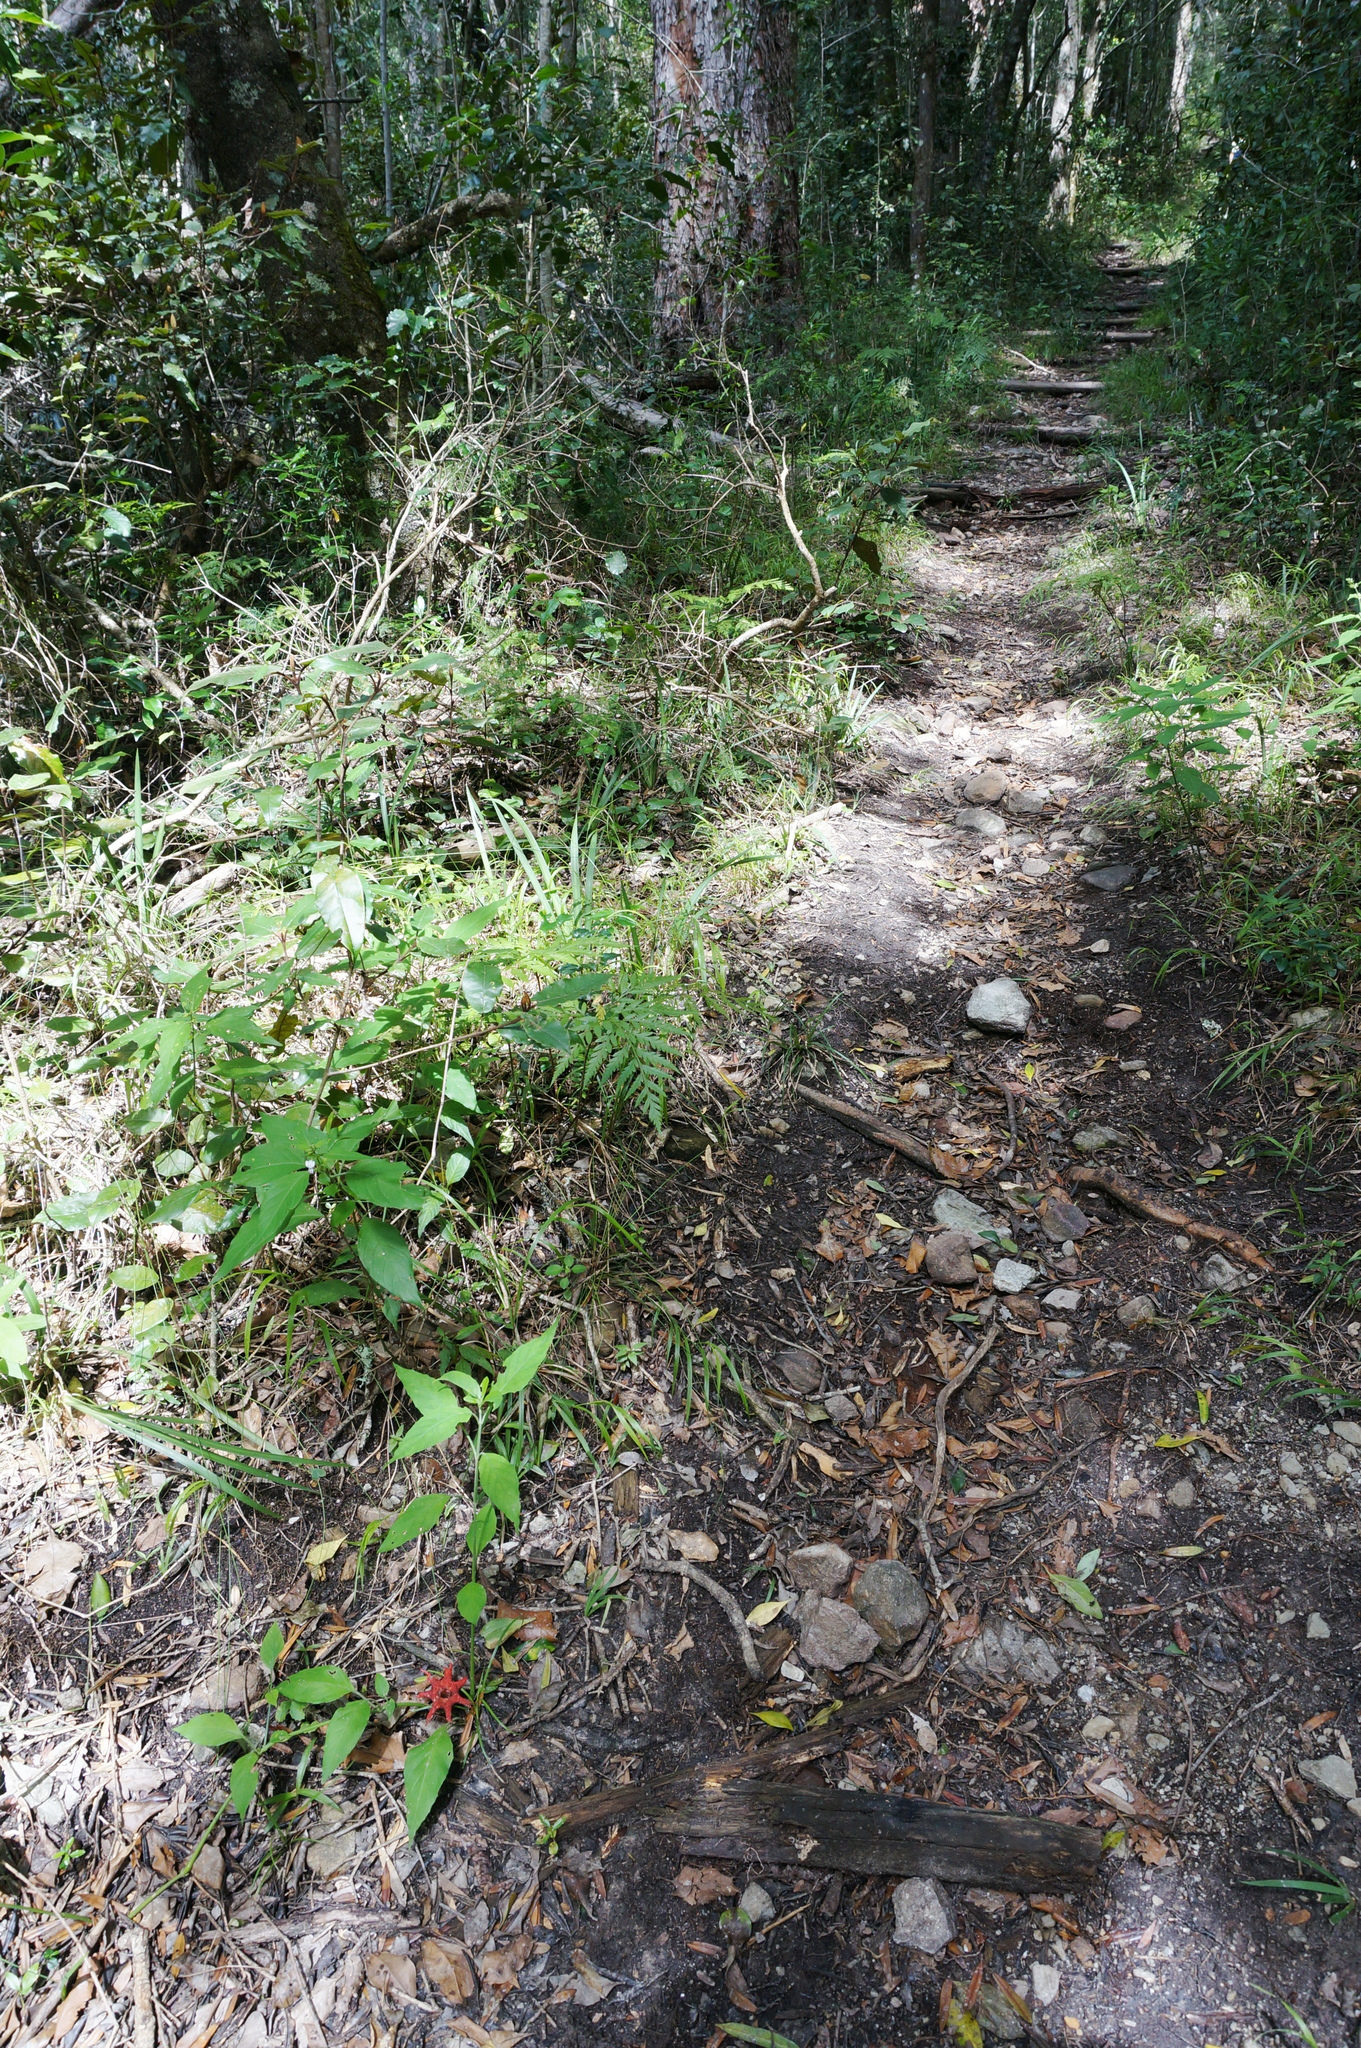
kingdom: Fungi
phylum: Basidiomycota
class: Agaricomycetes
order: Phallales
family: Phallaceae
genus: Clathrus
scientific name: Clathrus archeri
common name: Devil's fingers
